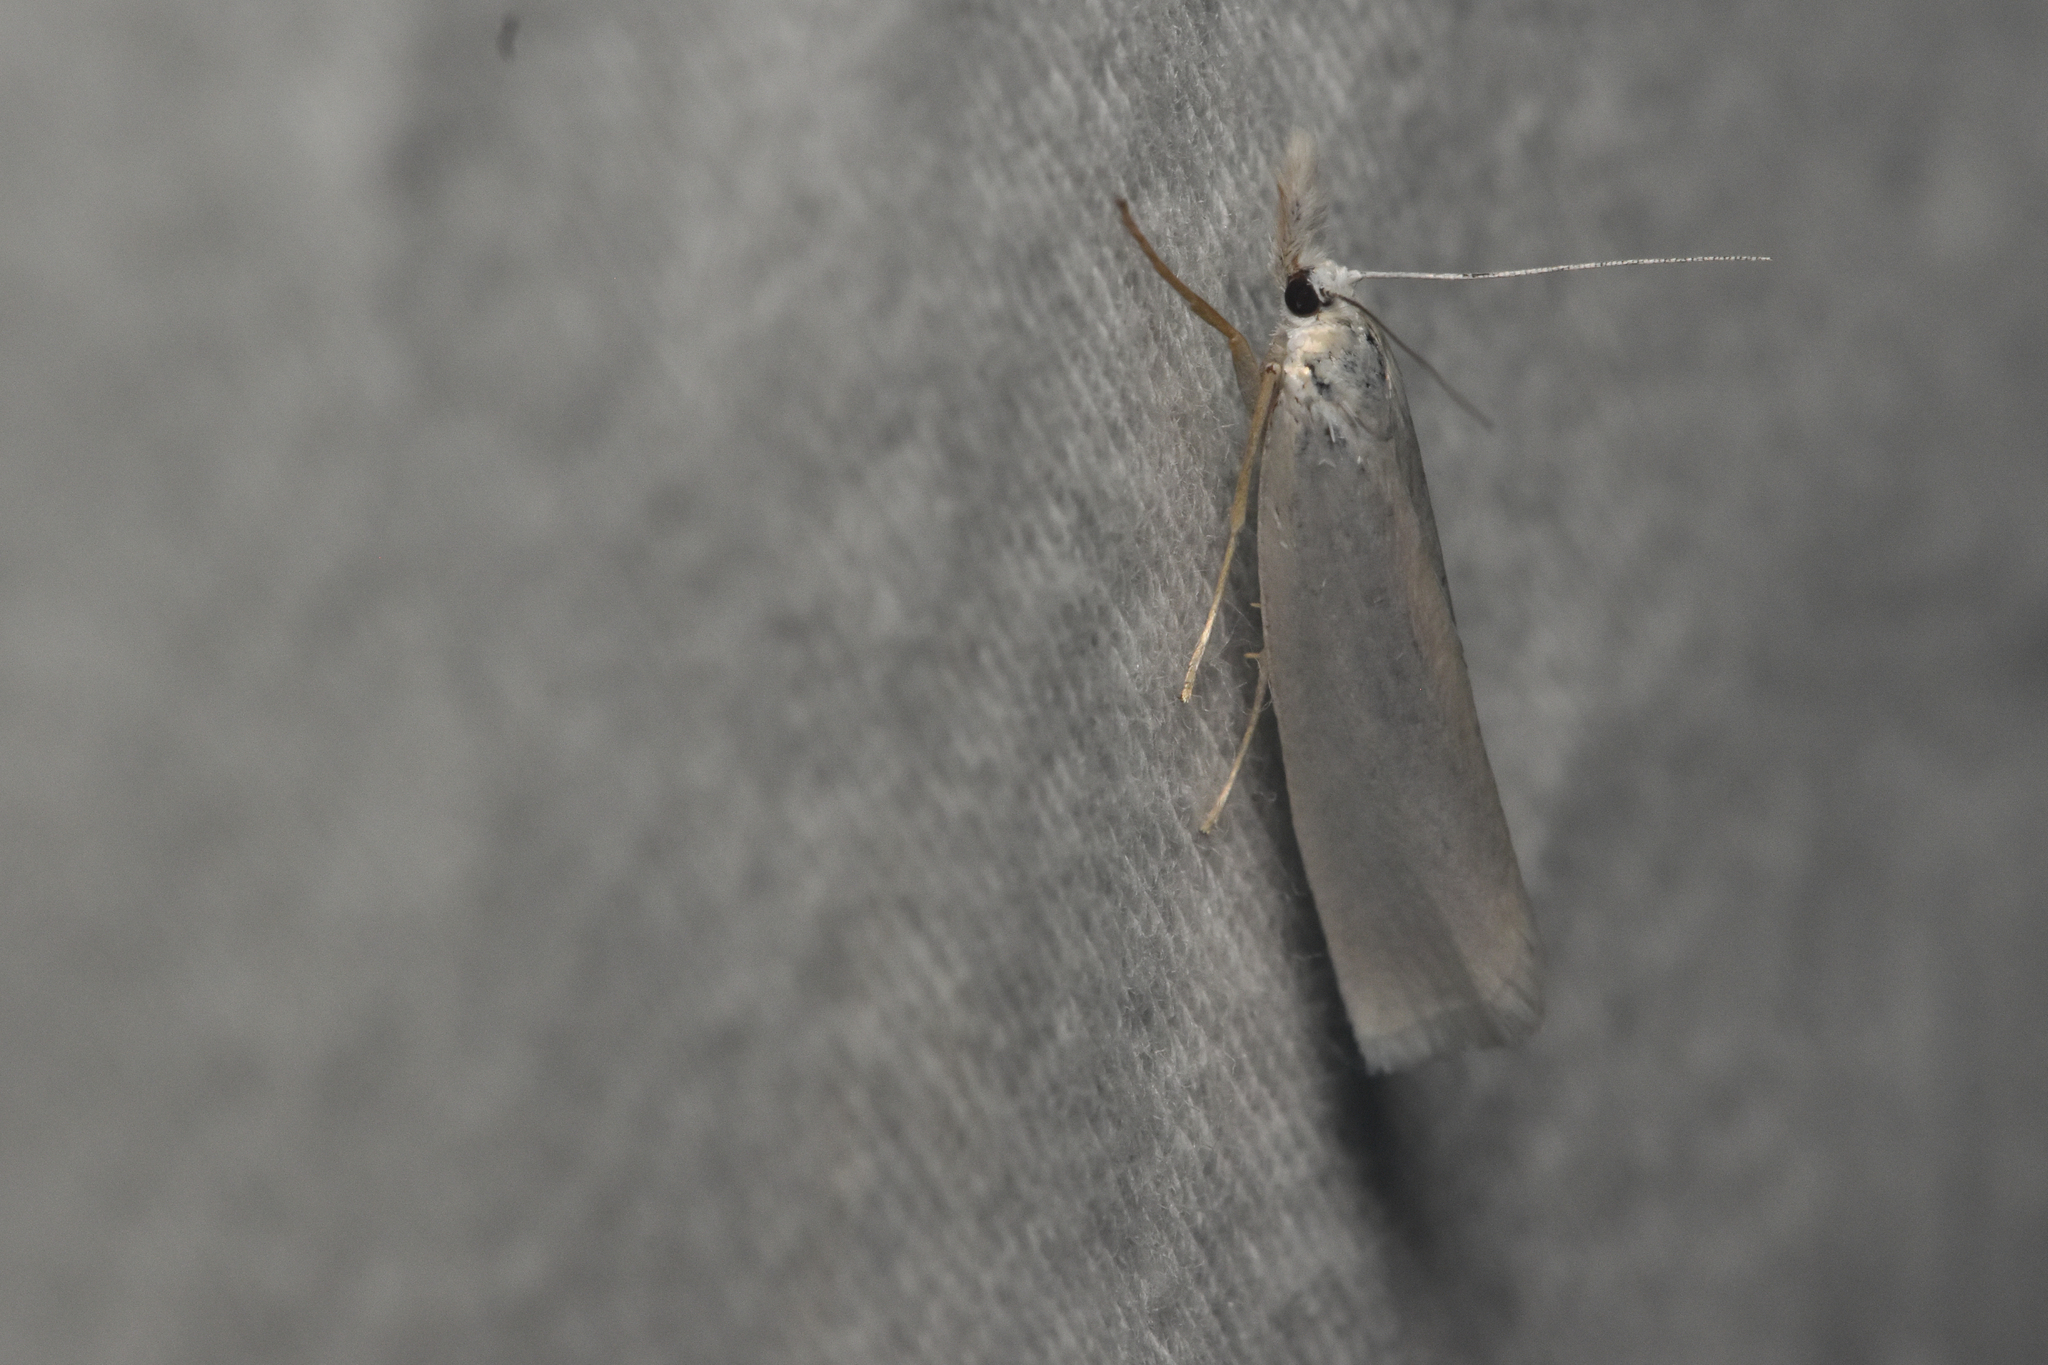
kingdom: Animalia
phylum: Arthropoda
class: Insecta
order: Lepidoptera
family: Crambidae
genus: Crambus
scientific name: Crambus perlellus
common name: Yellow satin veneer
